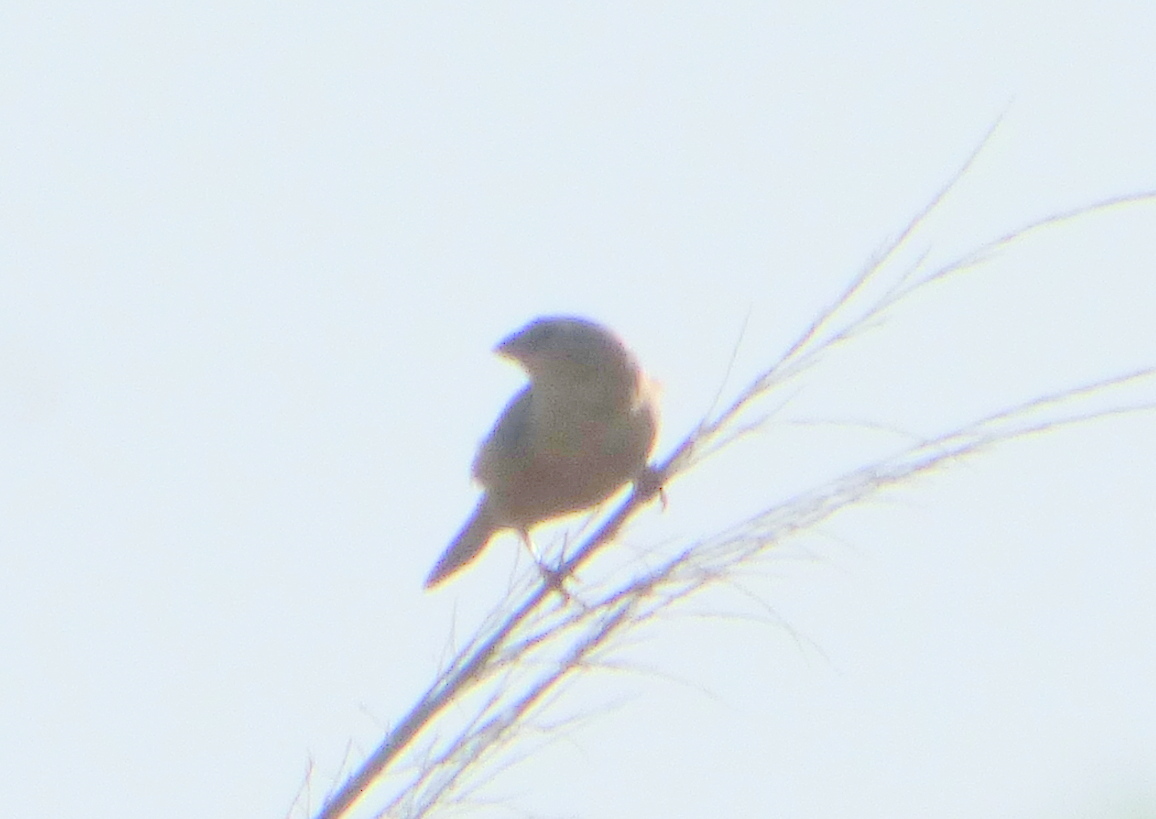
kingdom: Animalia
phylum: Chordata
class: Aves
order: Passeriformes
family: Thraupidae
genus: Sporophila
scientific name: Sporophila hypoxantha
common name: Tawny-bellied seedeater
